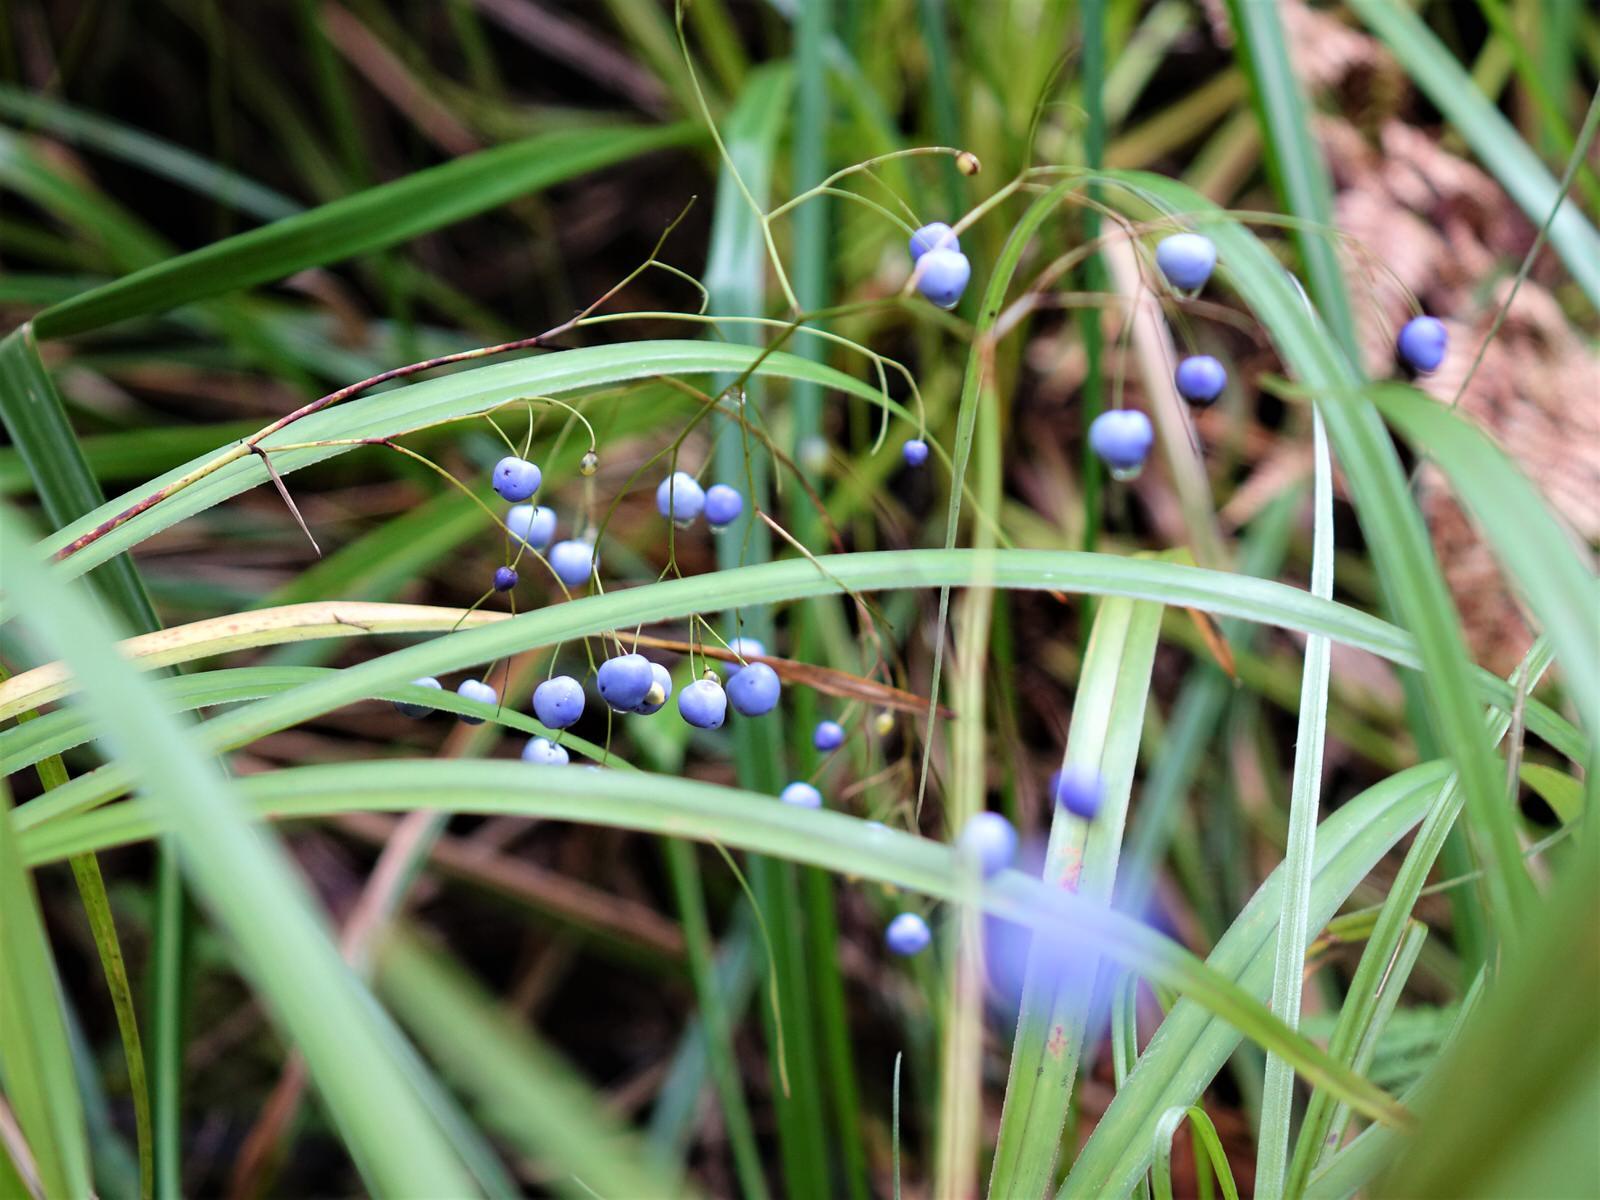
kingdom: Plantae
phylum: Tracheophyta
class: Liliopsida
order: Asparagales
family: Asphodelaceae
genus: Dianella
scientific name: Dianella nigra
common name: New zealand-blueberry
